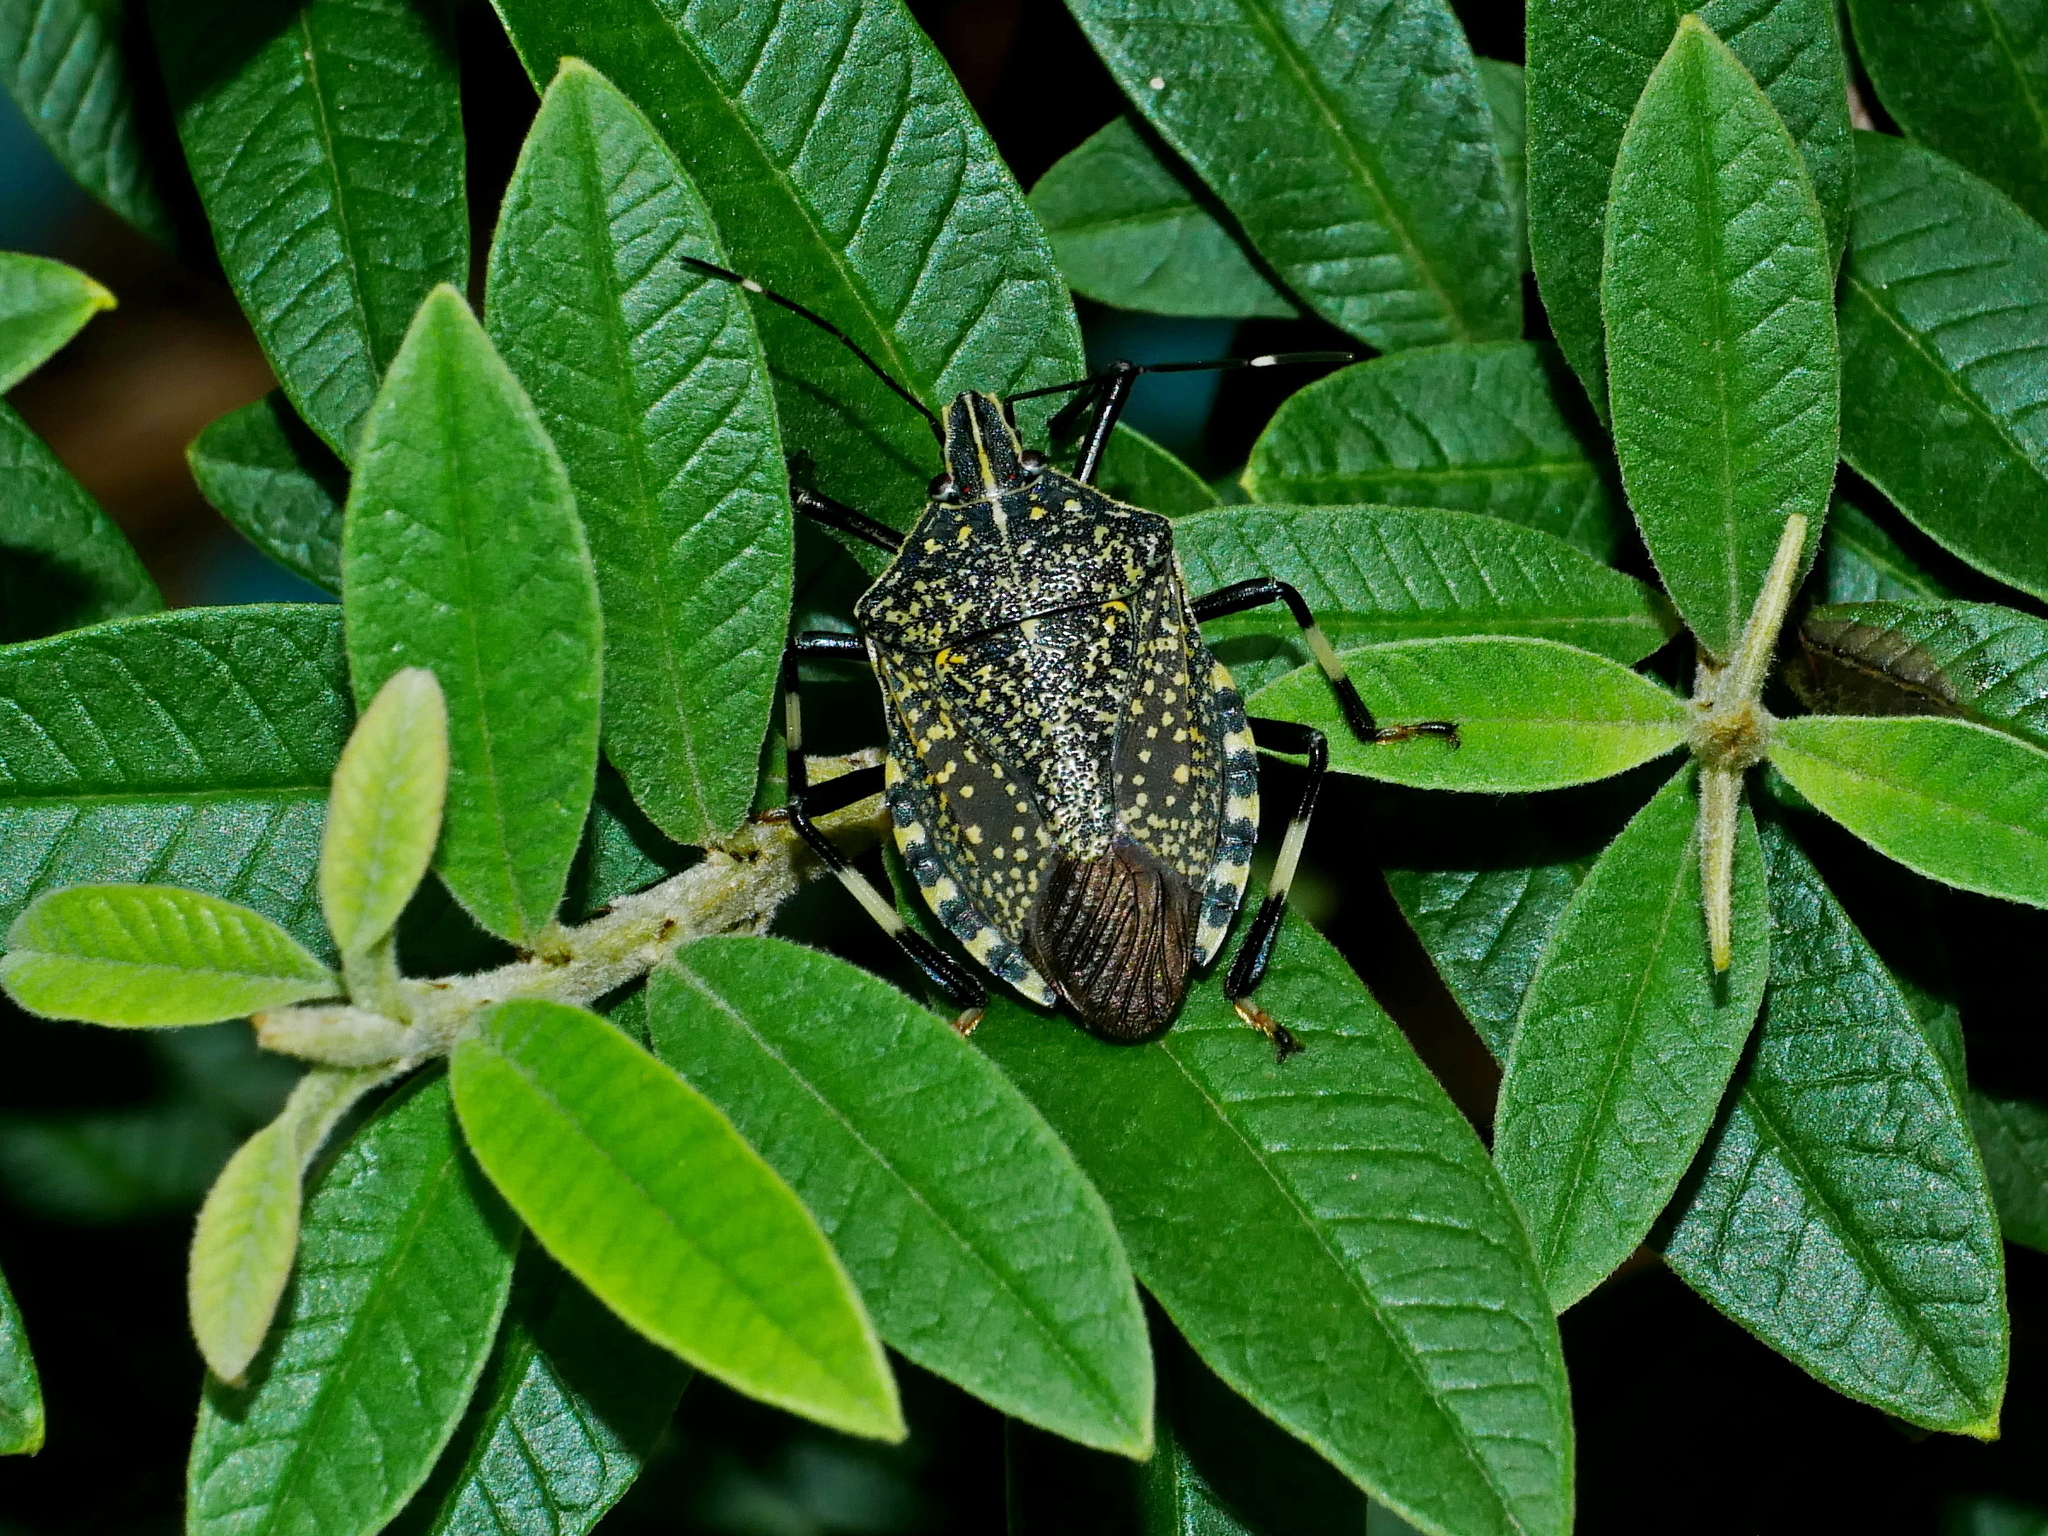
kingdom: Animalia
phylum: Arthropoda
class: Insecta
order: Hemiptera
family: Pentatomidae
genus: Erthesina
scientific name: Erthesina fullo
